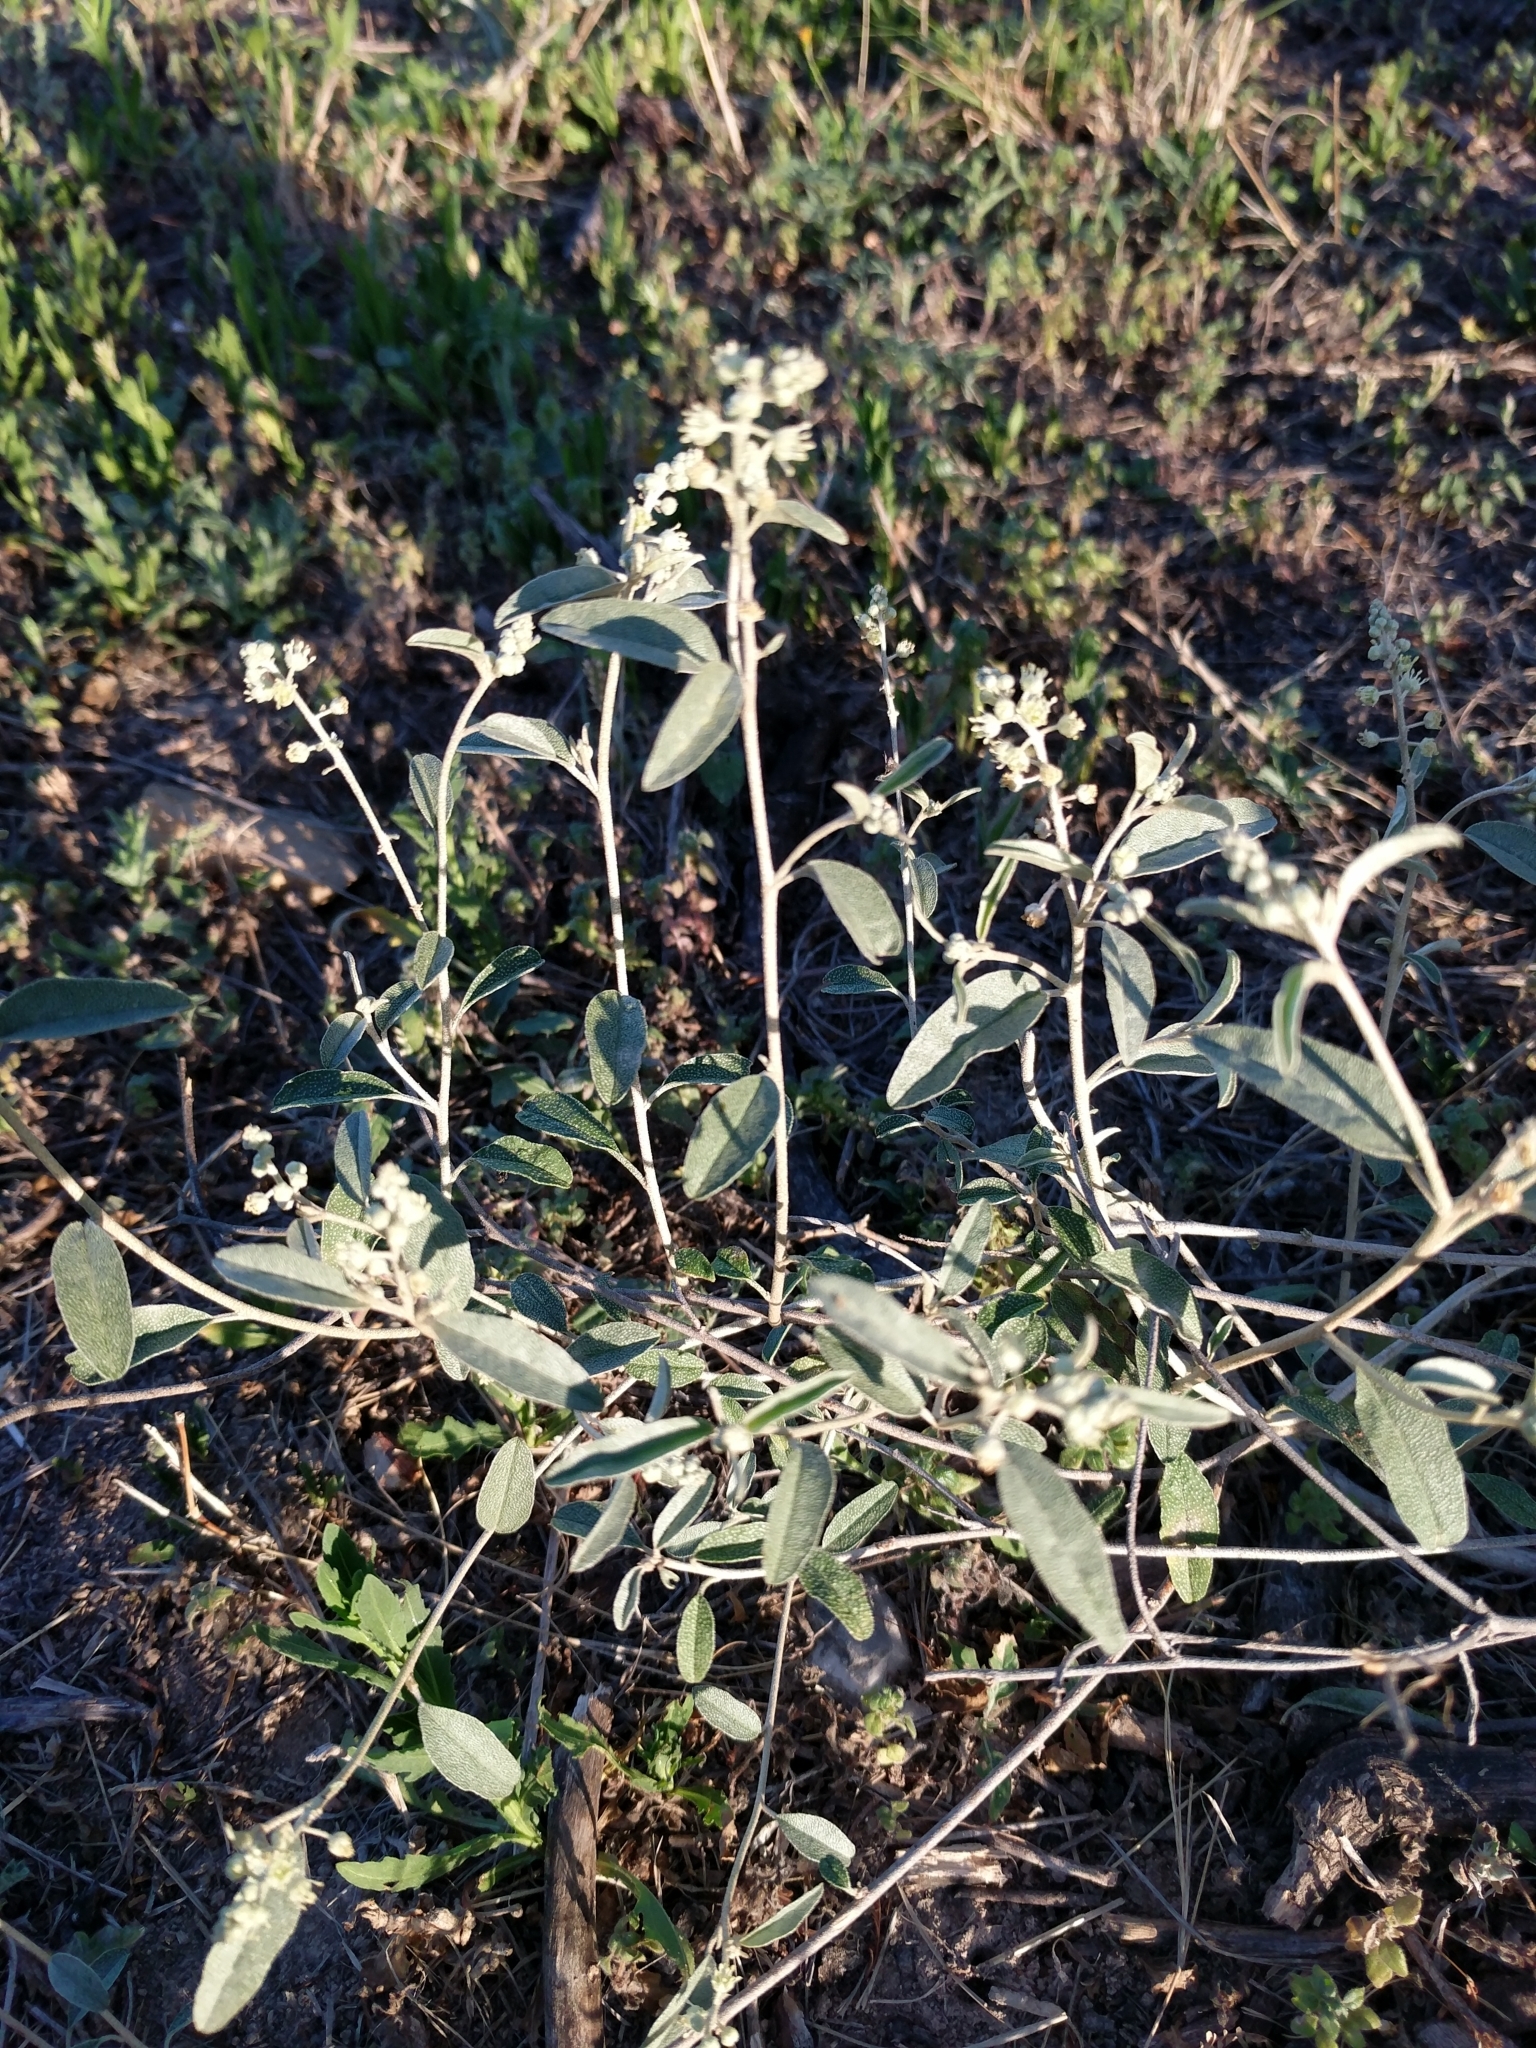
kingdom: Plantae
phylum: Tracheophyta
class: Magnoliopsida
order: Malpighiales
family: Euphorbiaceae
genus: Croton
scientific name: Croton dioicus
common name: Grassland croton
